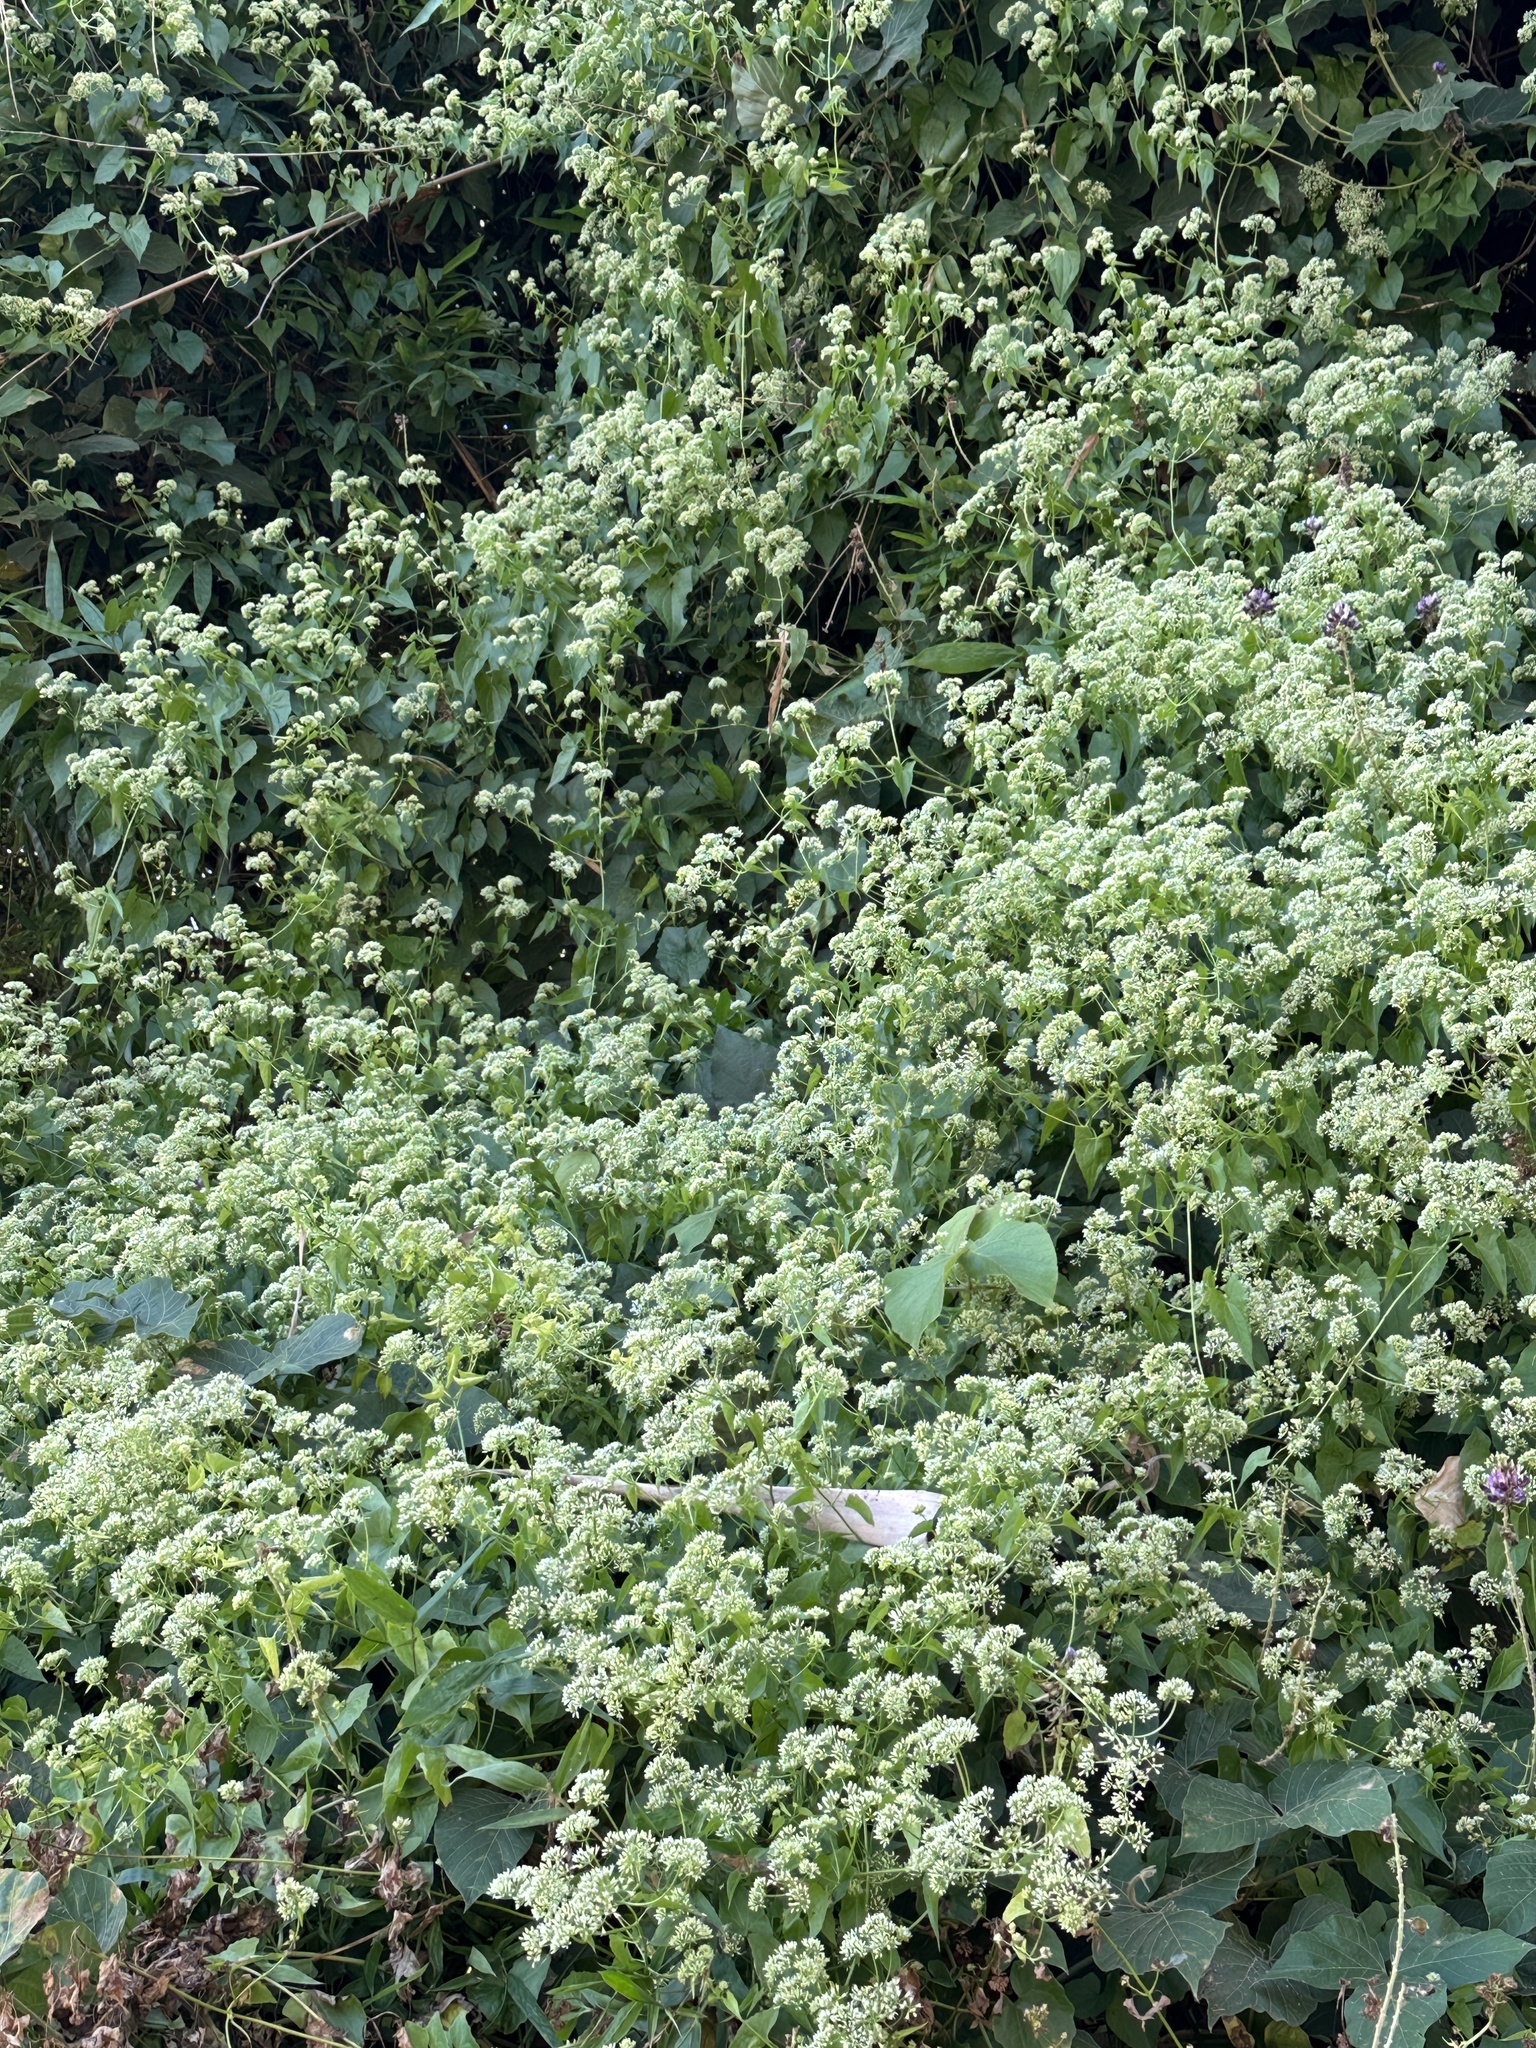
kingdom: Plantae
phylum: Tracheophyta
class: Magnoliopsida
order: Asterales
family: Asteraceae
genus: Mikania
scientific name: Mikania micrantha
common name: Mile-a-minute
